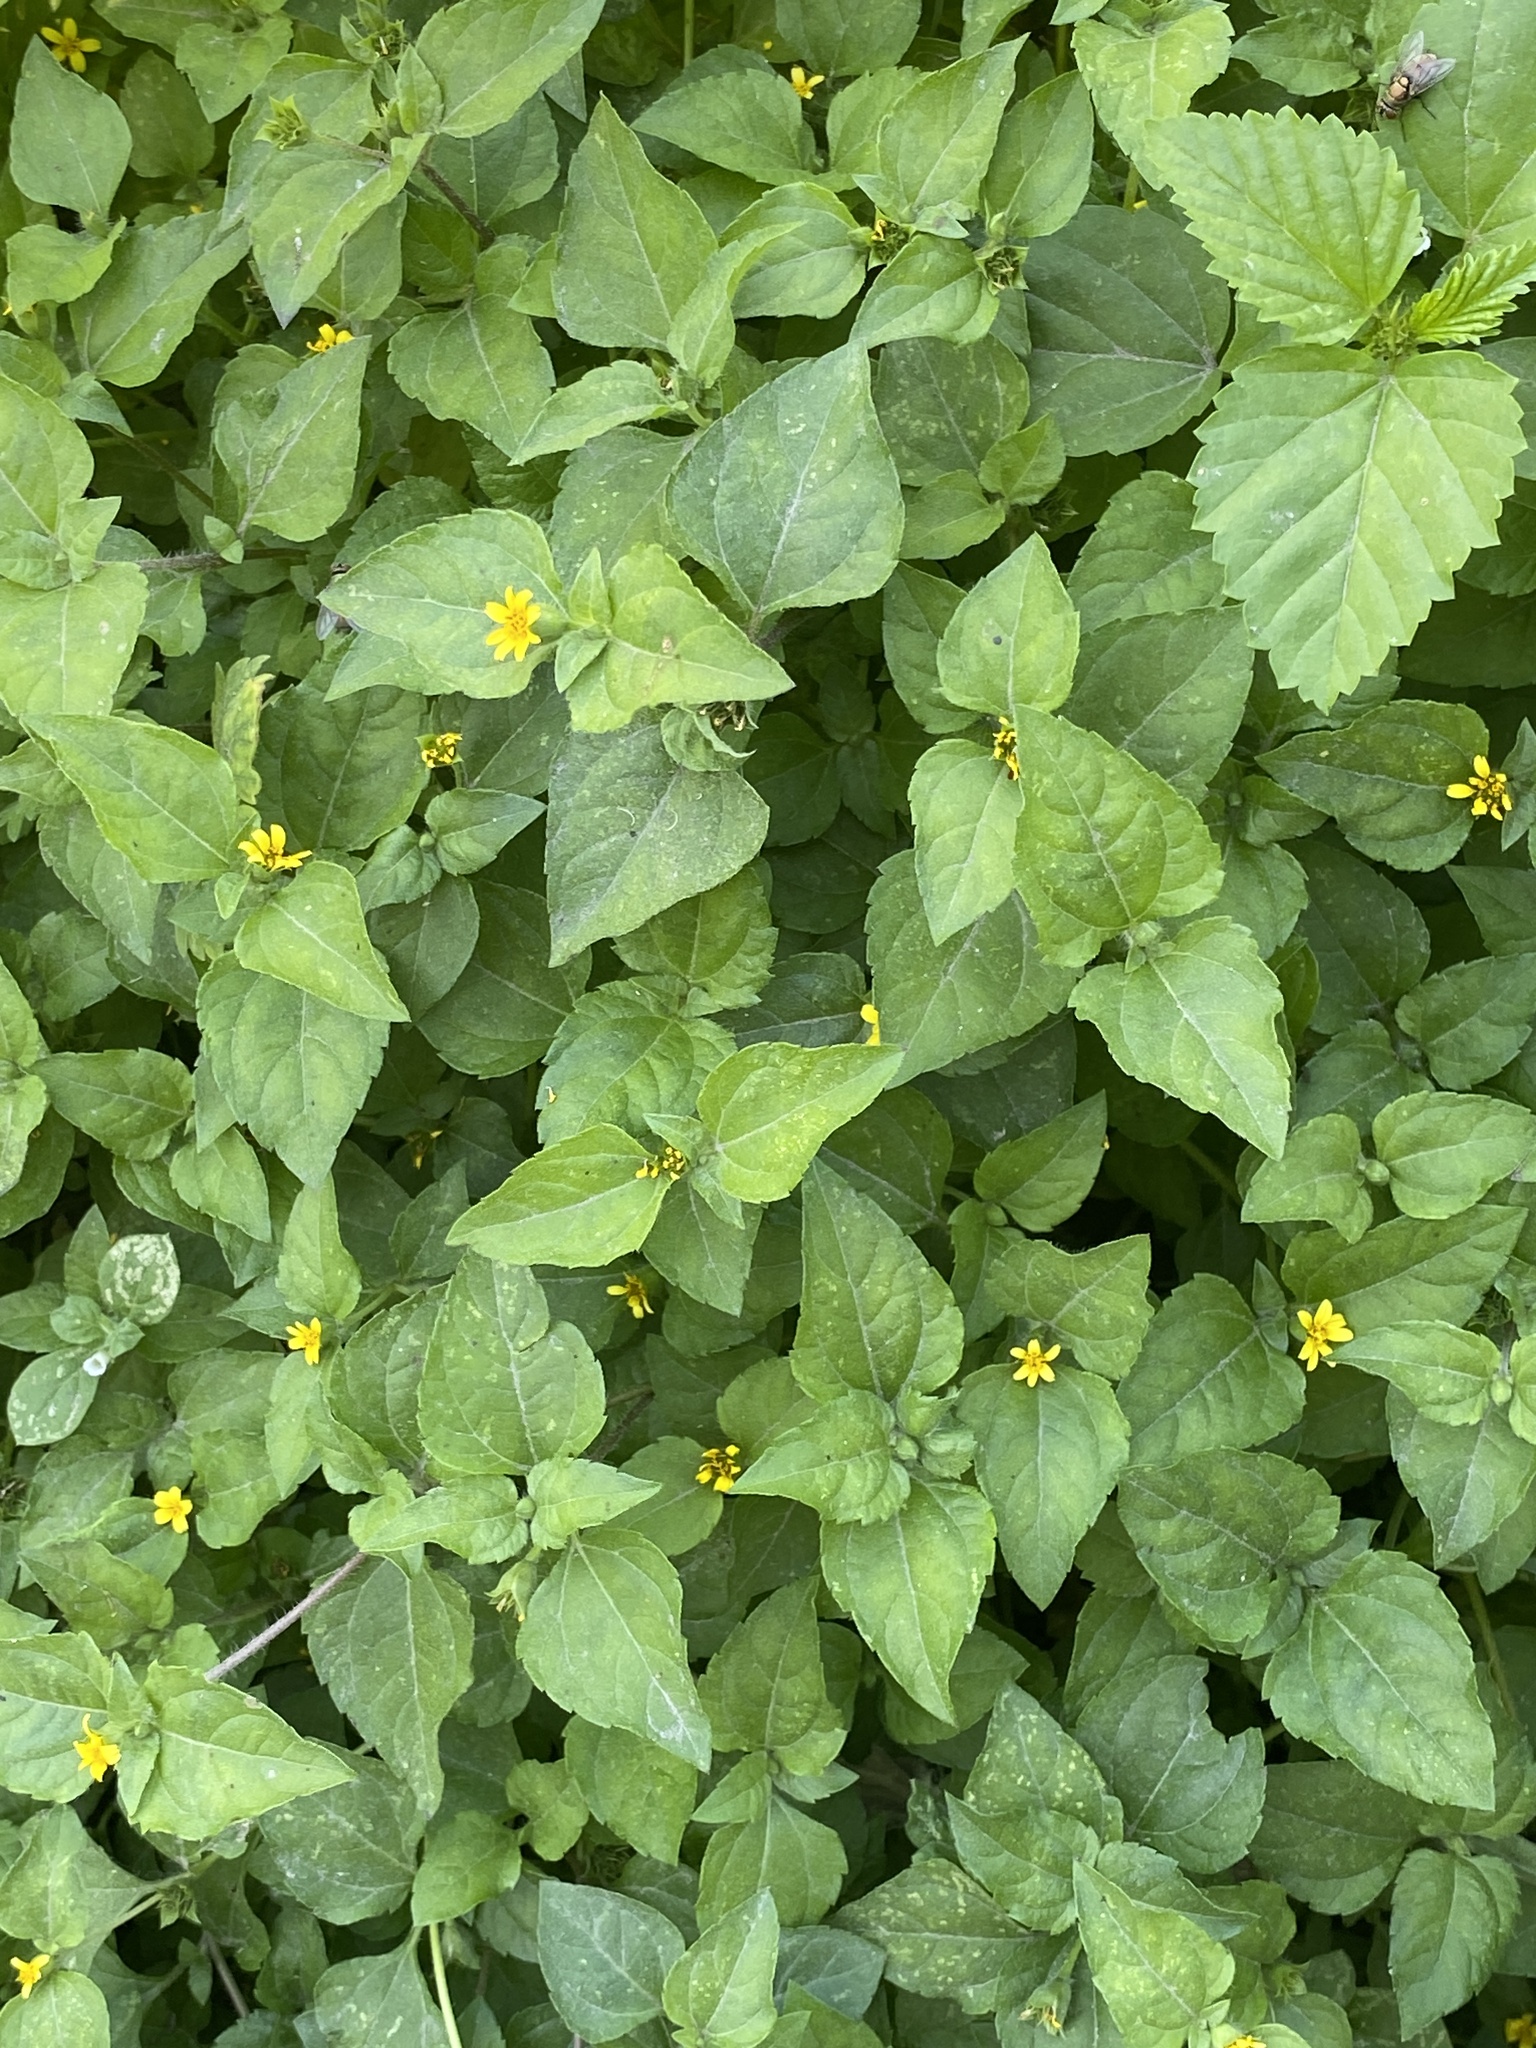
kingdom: Plantae
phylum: Tracheophyta
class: Magnoliopsida
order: Asterales
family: Asteraceae
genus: Calyptocarpus
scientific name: Calyptocarpus vialis
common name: Straggler daisy
